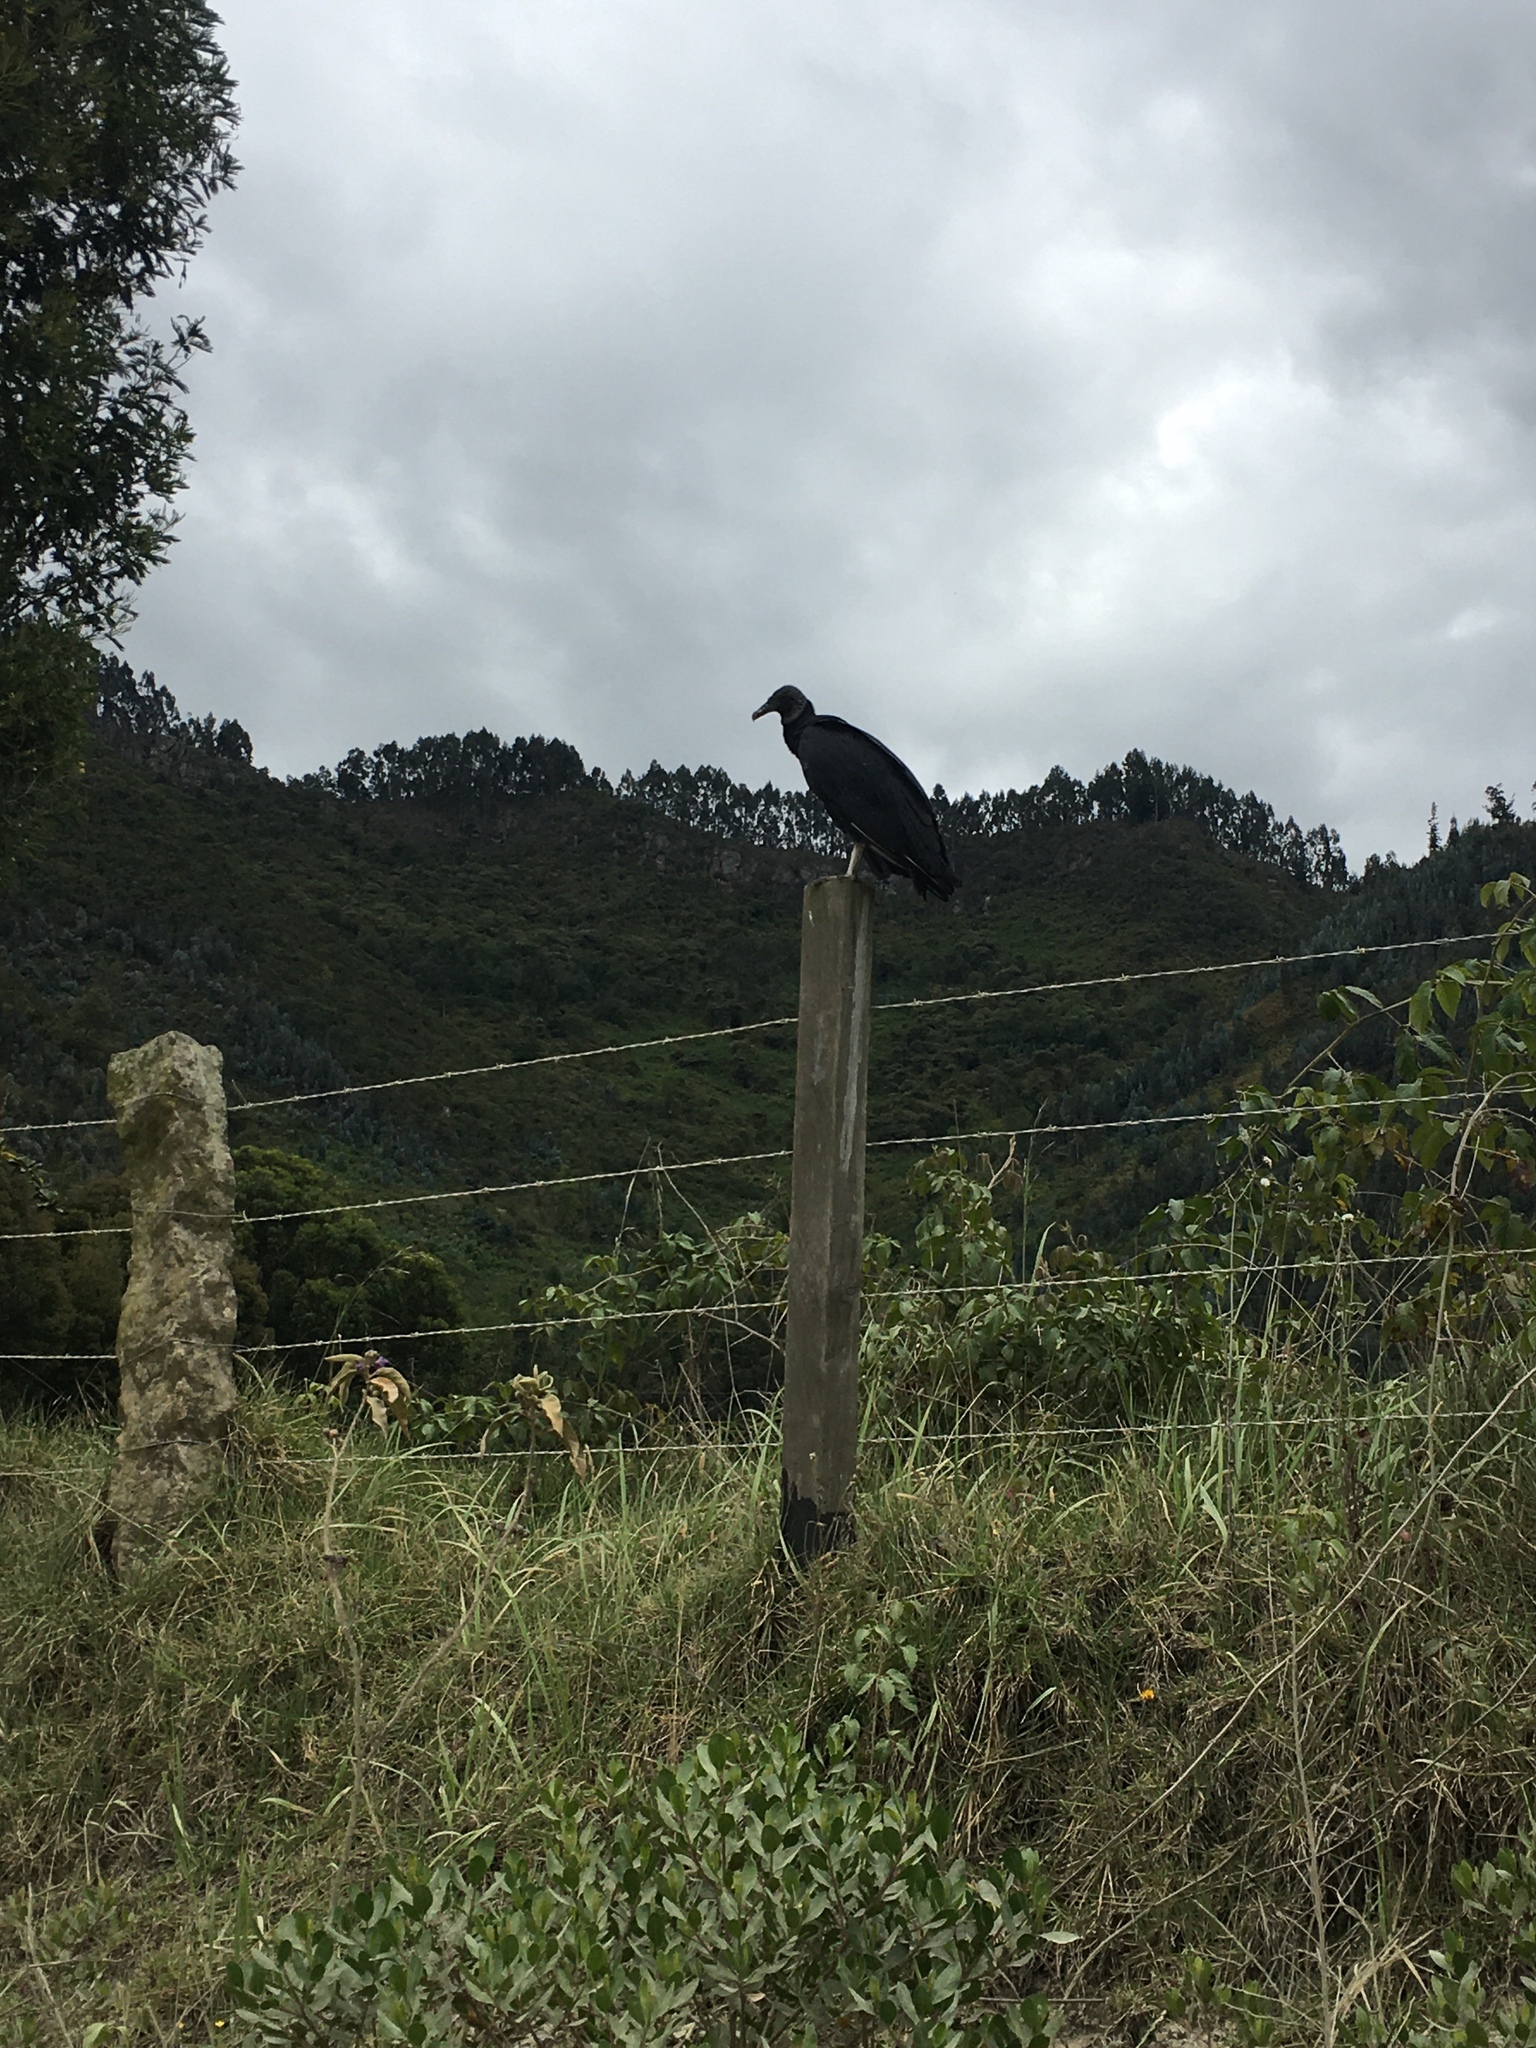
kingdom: Animalia
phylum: Chordata
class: Aves
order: Accipitriformes
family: Cathartidae
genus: Coragyps
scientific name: Coragyps atratus
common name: Black vulture
